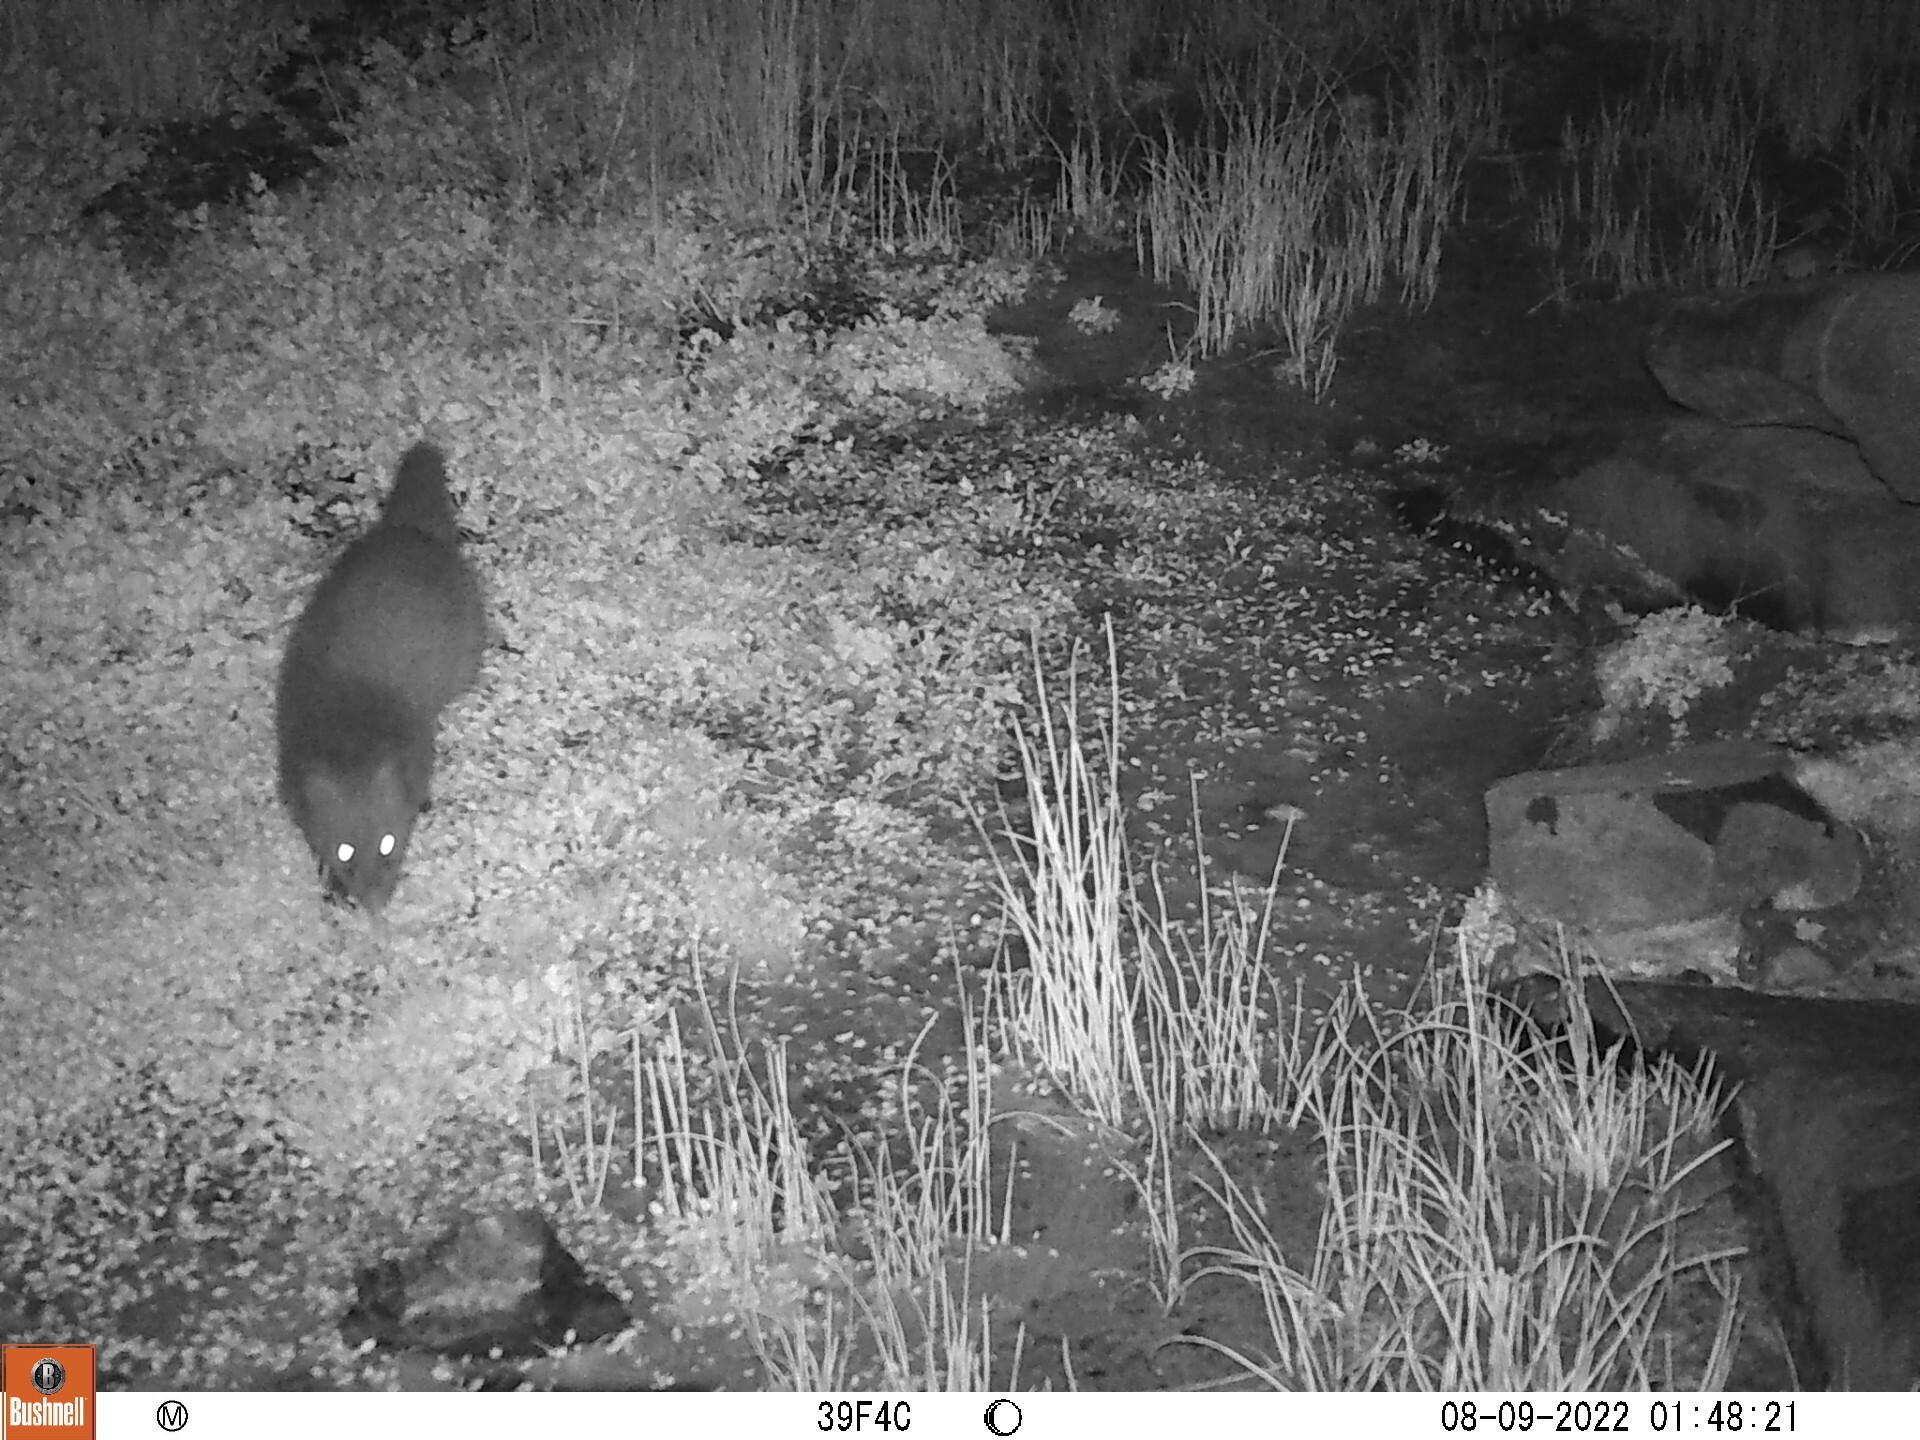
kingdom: Animalia
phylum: Chordata
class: Mammalia
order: Carnivora
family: Herpestidae
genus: Atilax
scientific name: Atilax paludinosus
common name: Marsh mongoose
